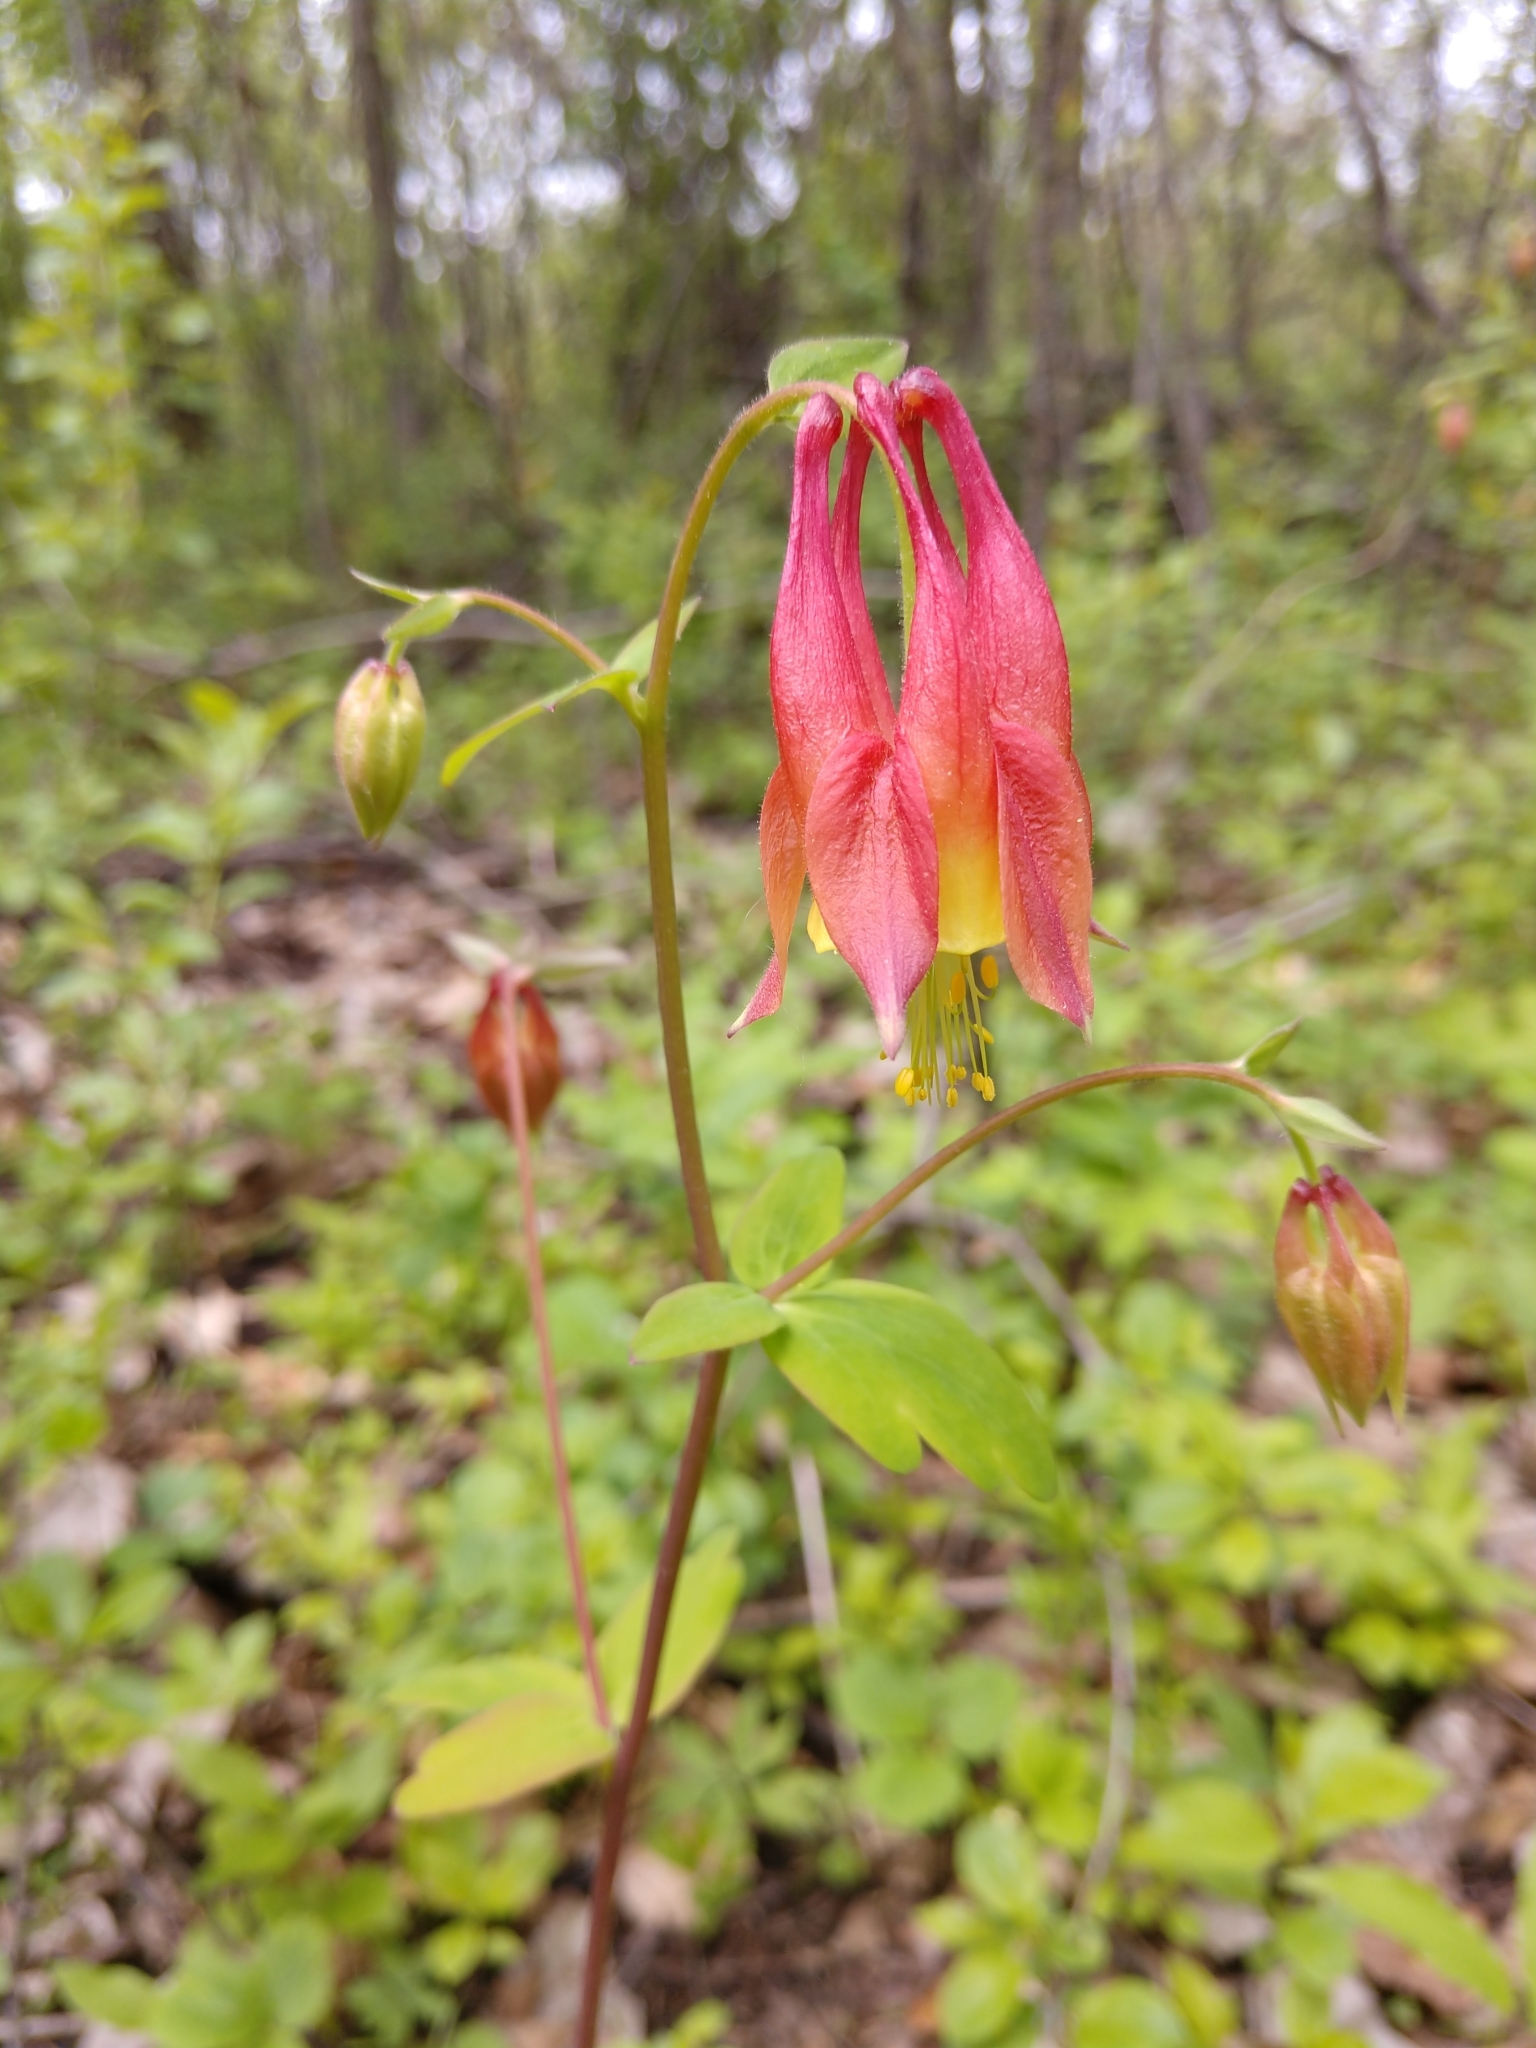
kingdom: Plantae
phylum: Tracheophyta
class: Magnoliopsida
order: Ranunculales
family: Ranunculaceae
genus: Aquilegia
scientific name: Aquilegia canadensis
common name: American columbine
